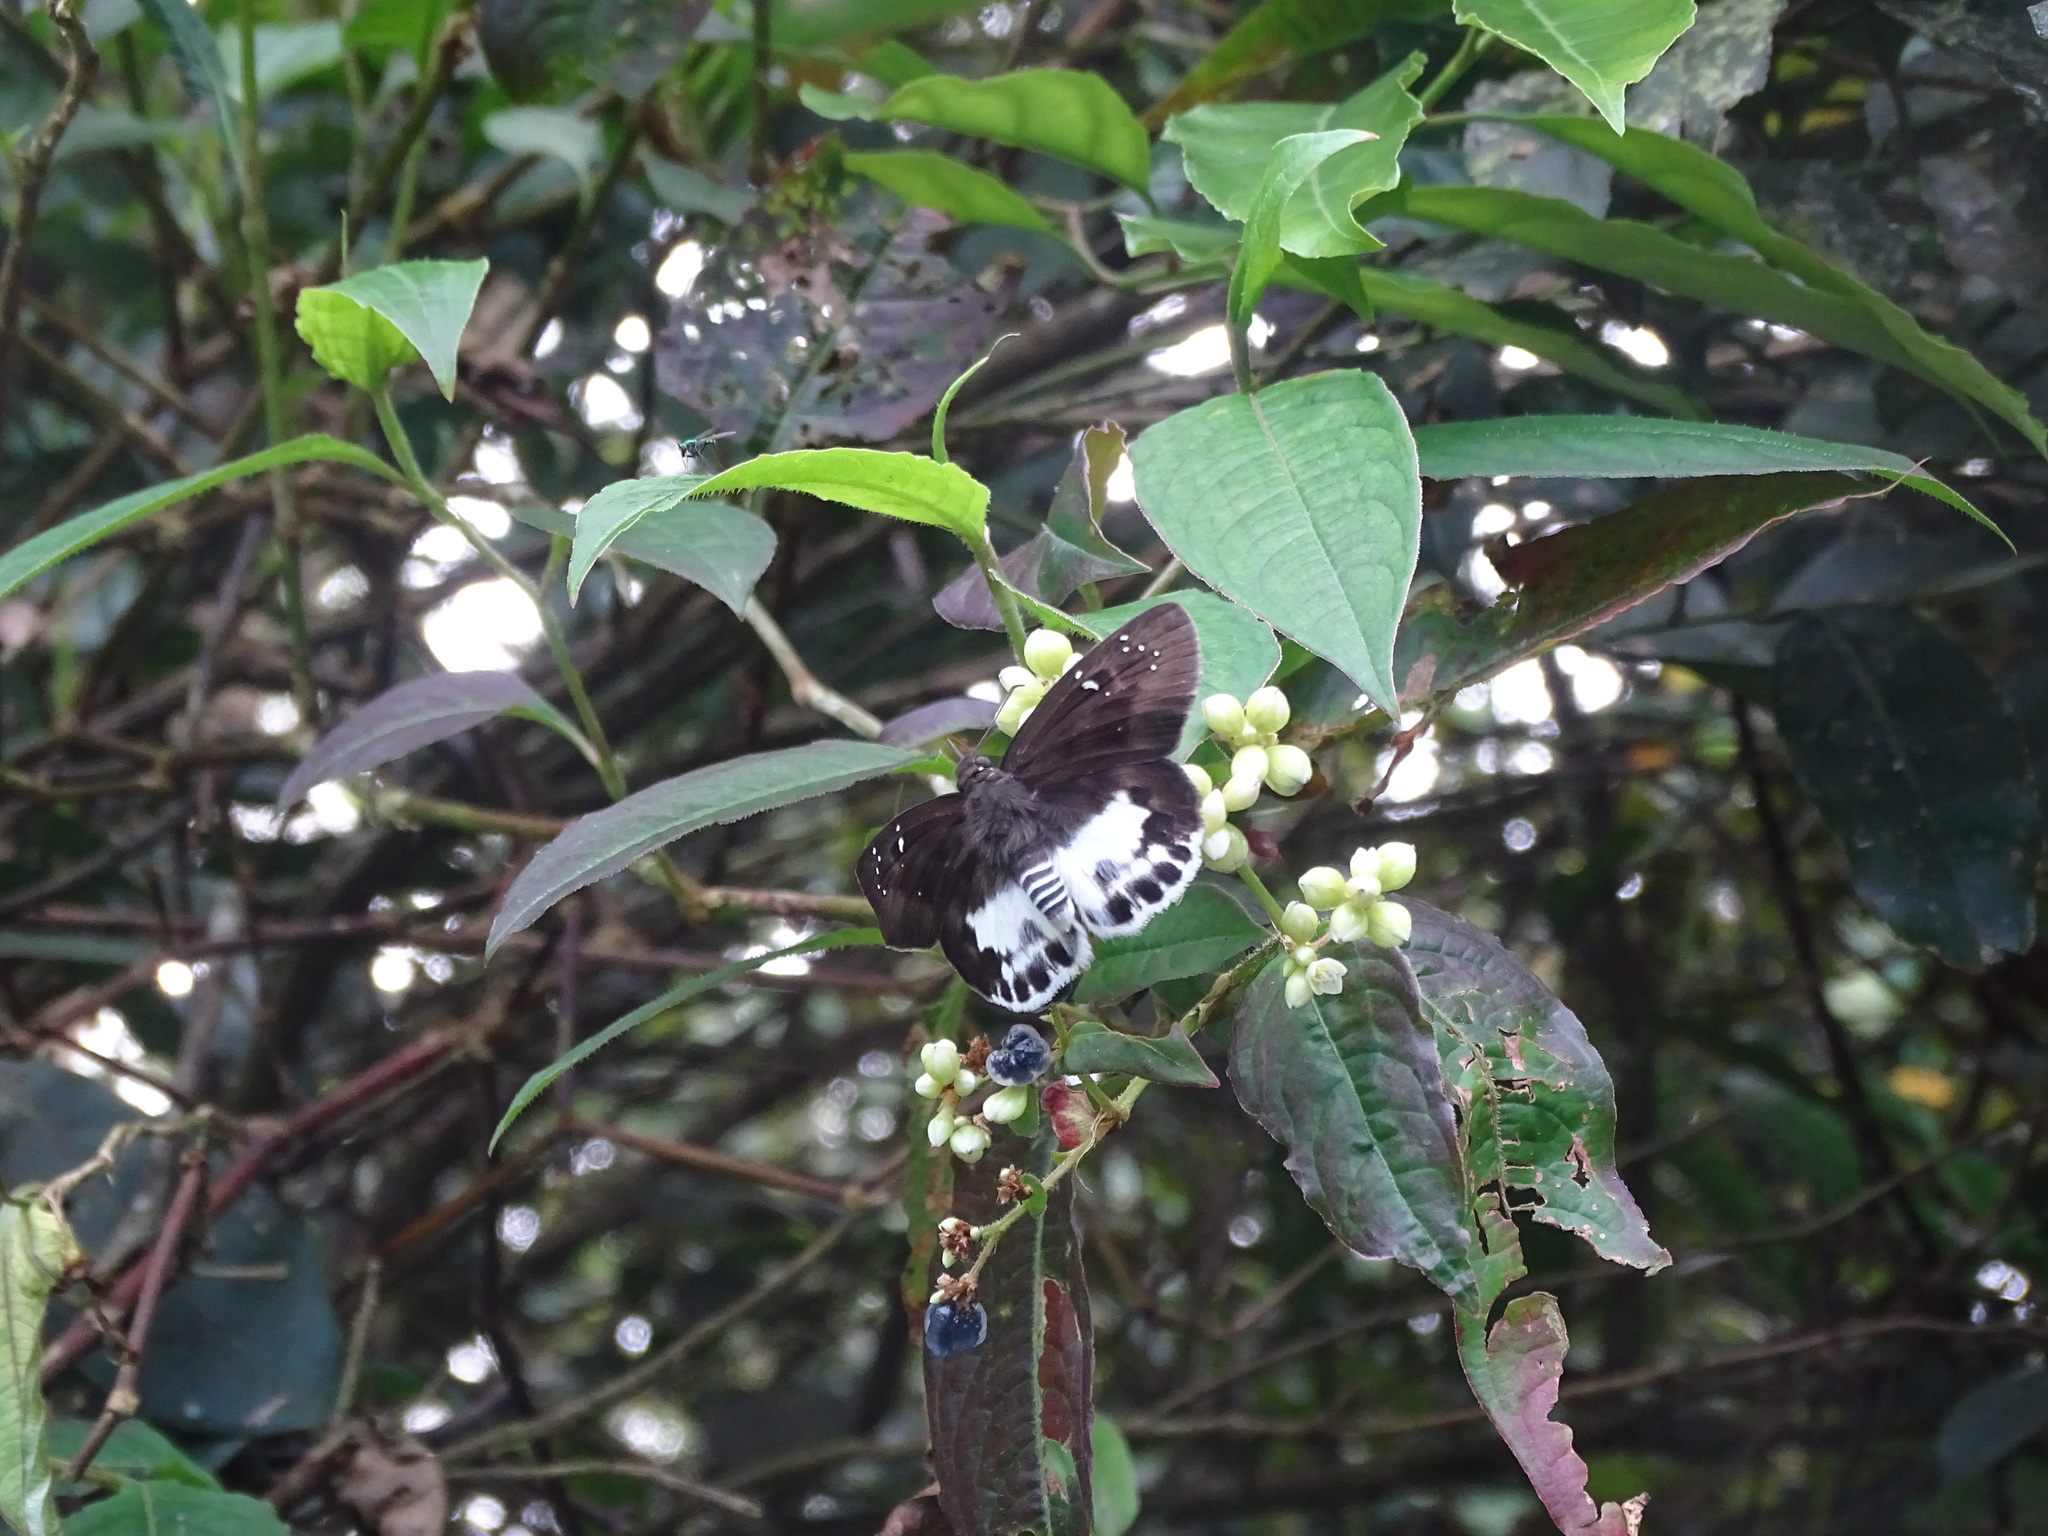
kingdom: Animalia
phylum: Arthropoda
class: Insecta
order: Lepidoptera
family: Hesperiidae
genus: Tagiades
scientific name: Tagiades cohaerens
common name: White-striped snow flat
